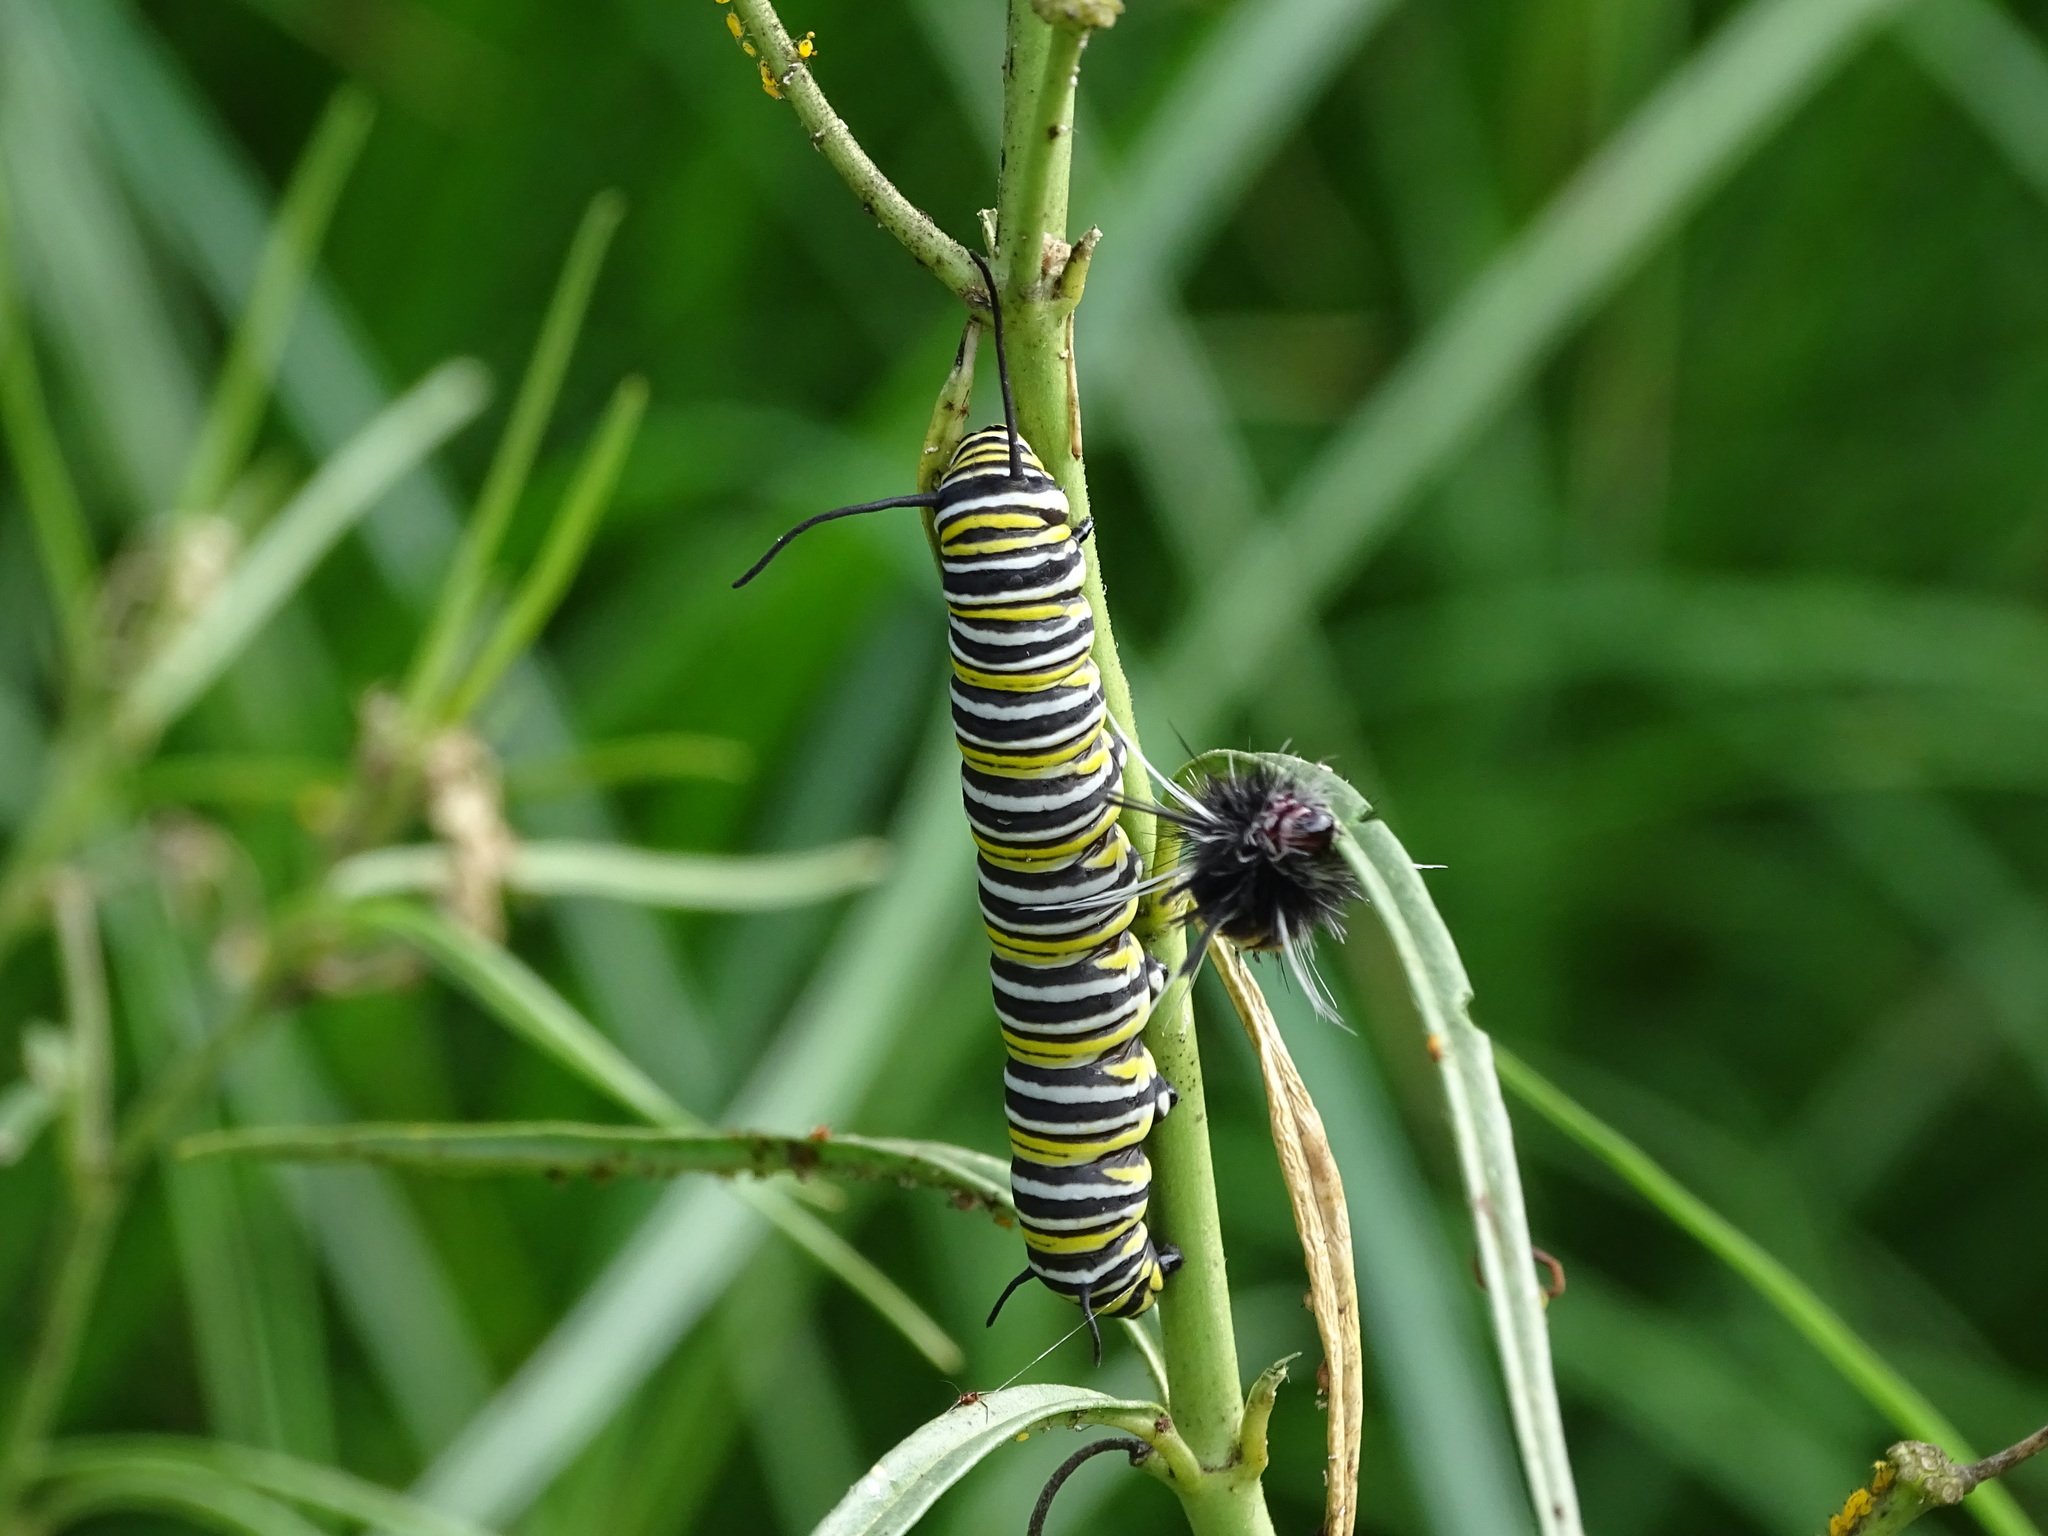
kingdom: Animalia
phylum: Arthropoda
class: Insecta
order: Lepidoptera
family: Nymphalidae
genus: Danaus
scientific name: Danaus plexippus
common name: Monarch
